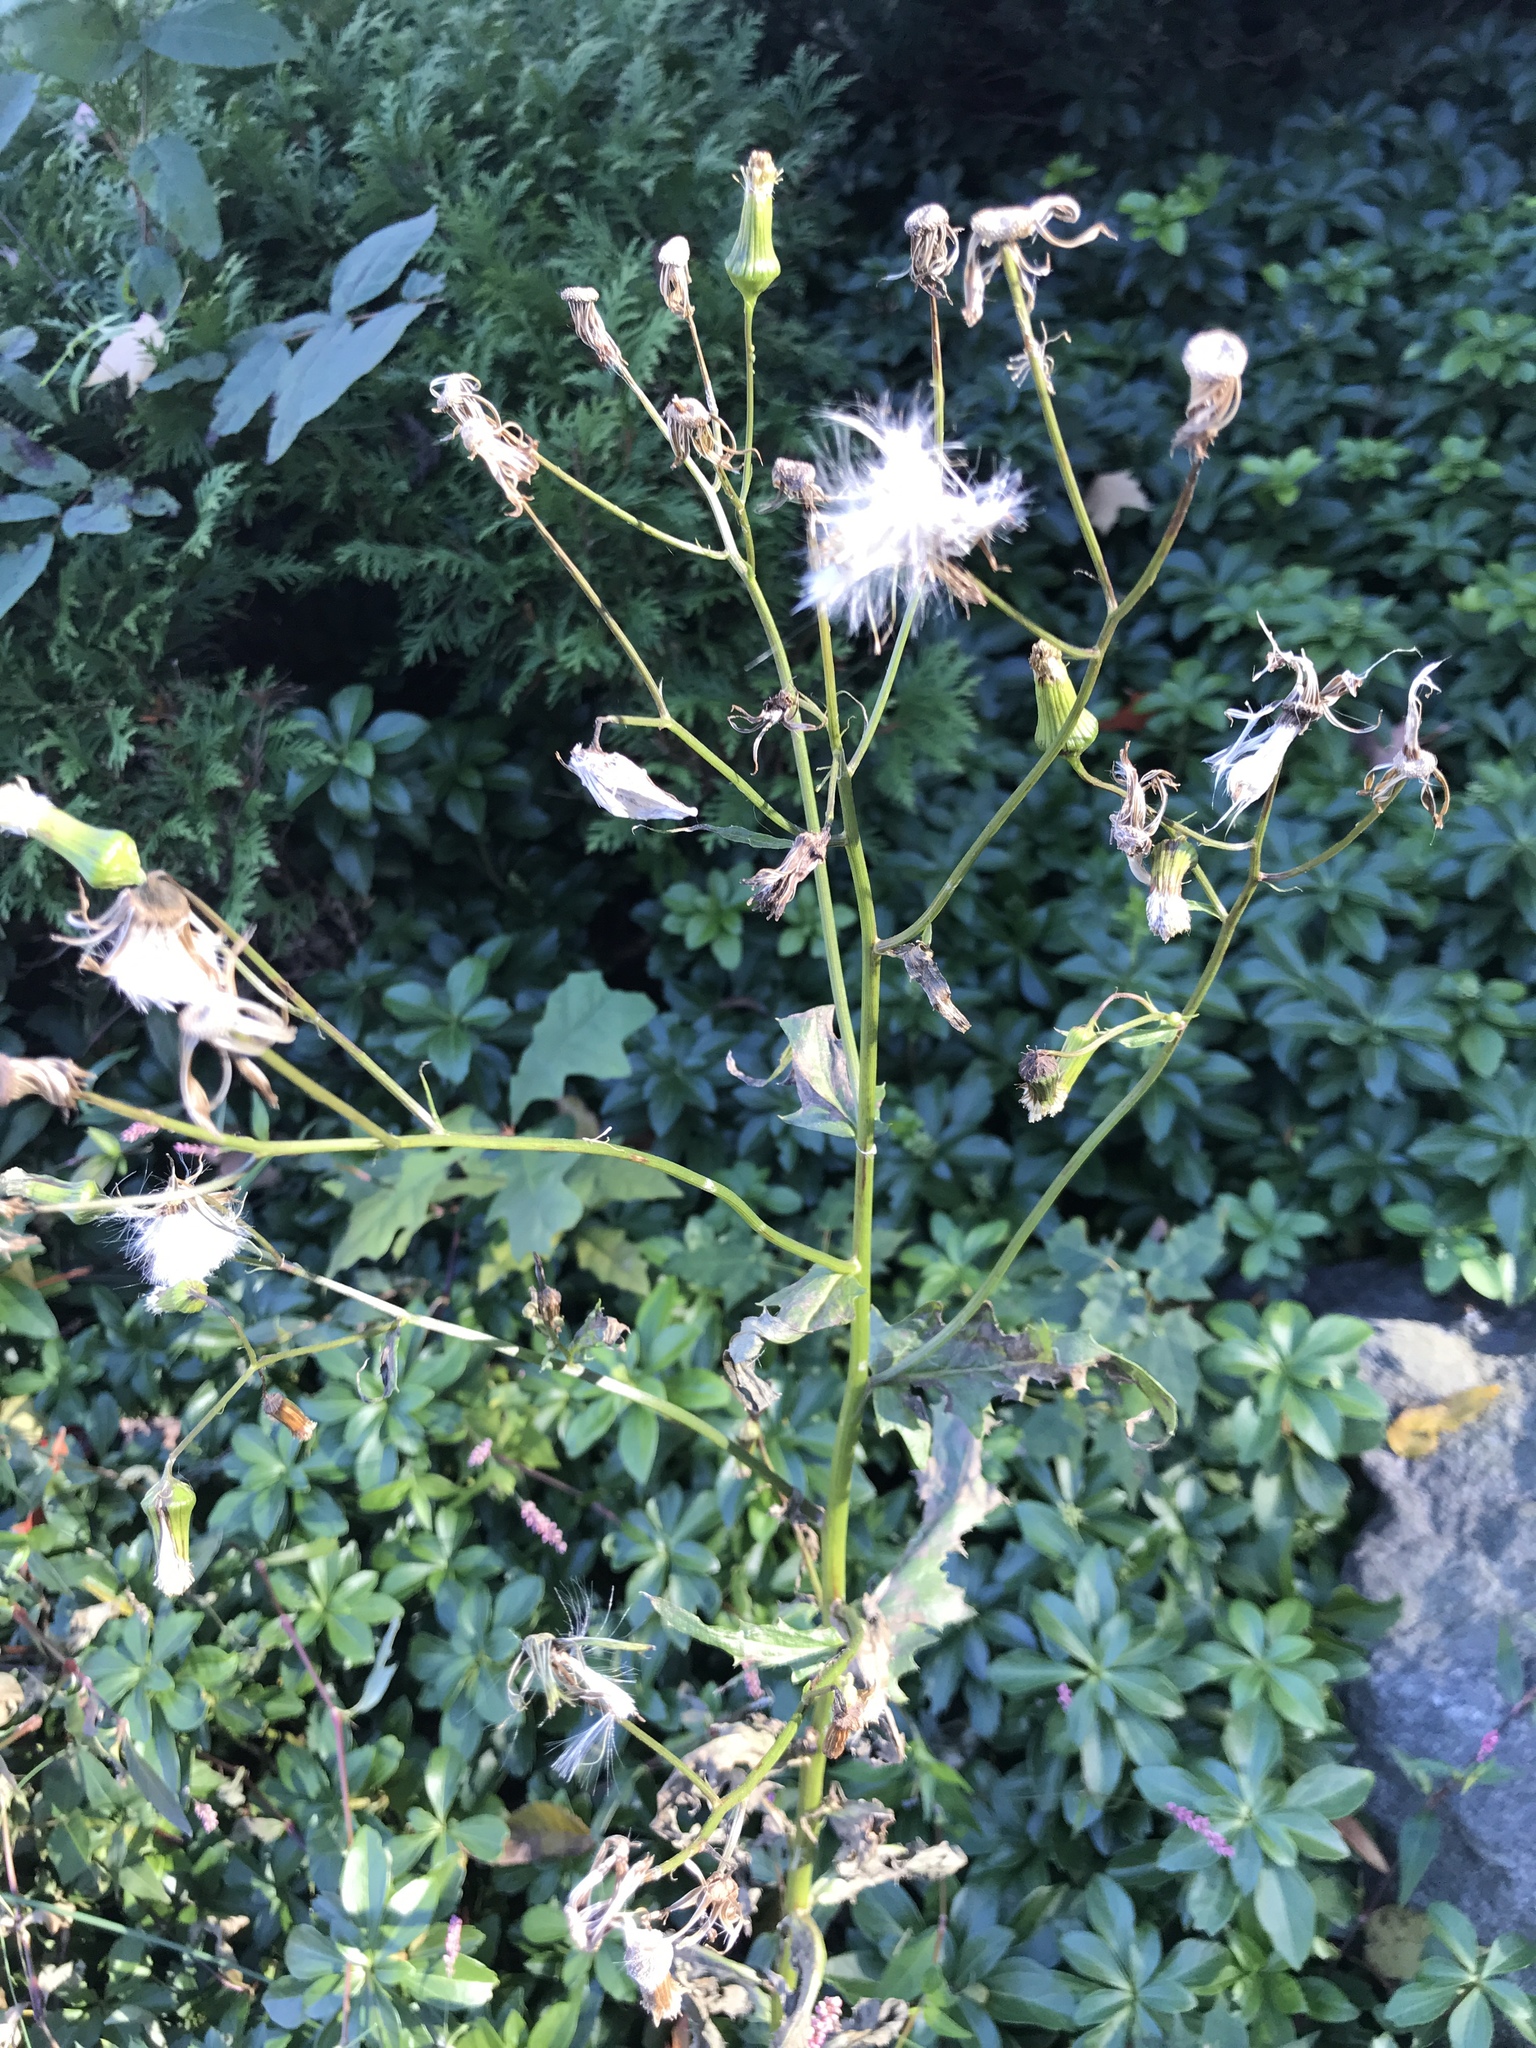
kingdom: Plantae
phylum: Tracheophyta
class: Magnoliopsida
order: Asterales
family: Asteraceae
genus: Erechtites
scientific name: Erechtites hieraciifolius
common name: American burnweed
